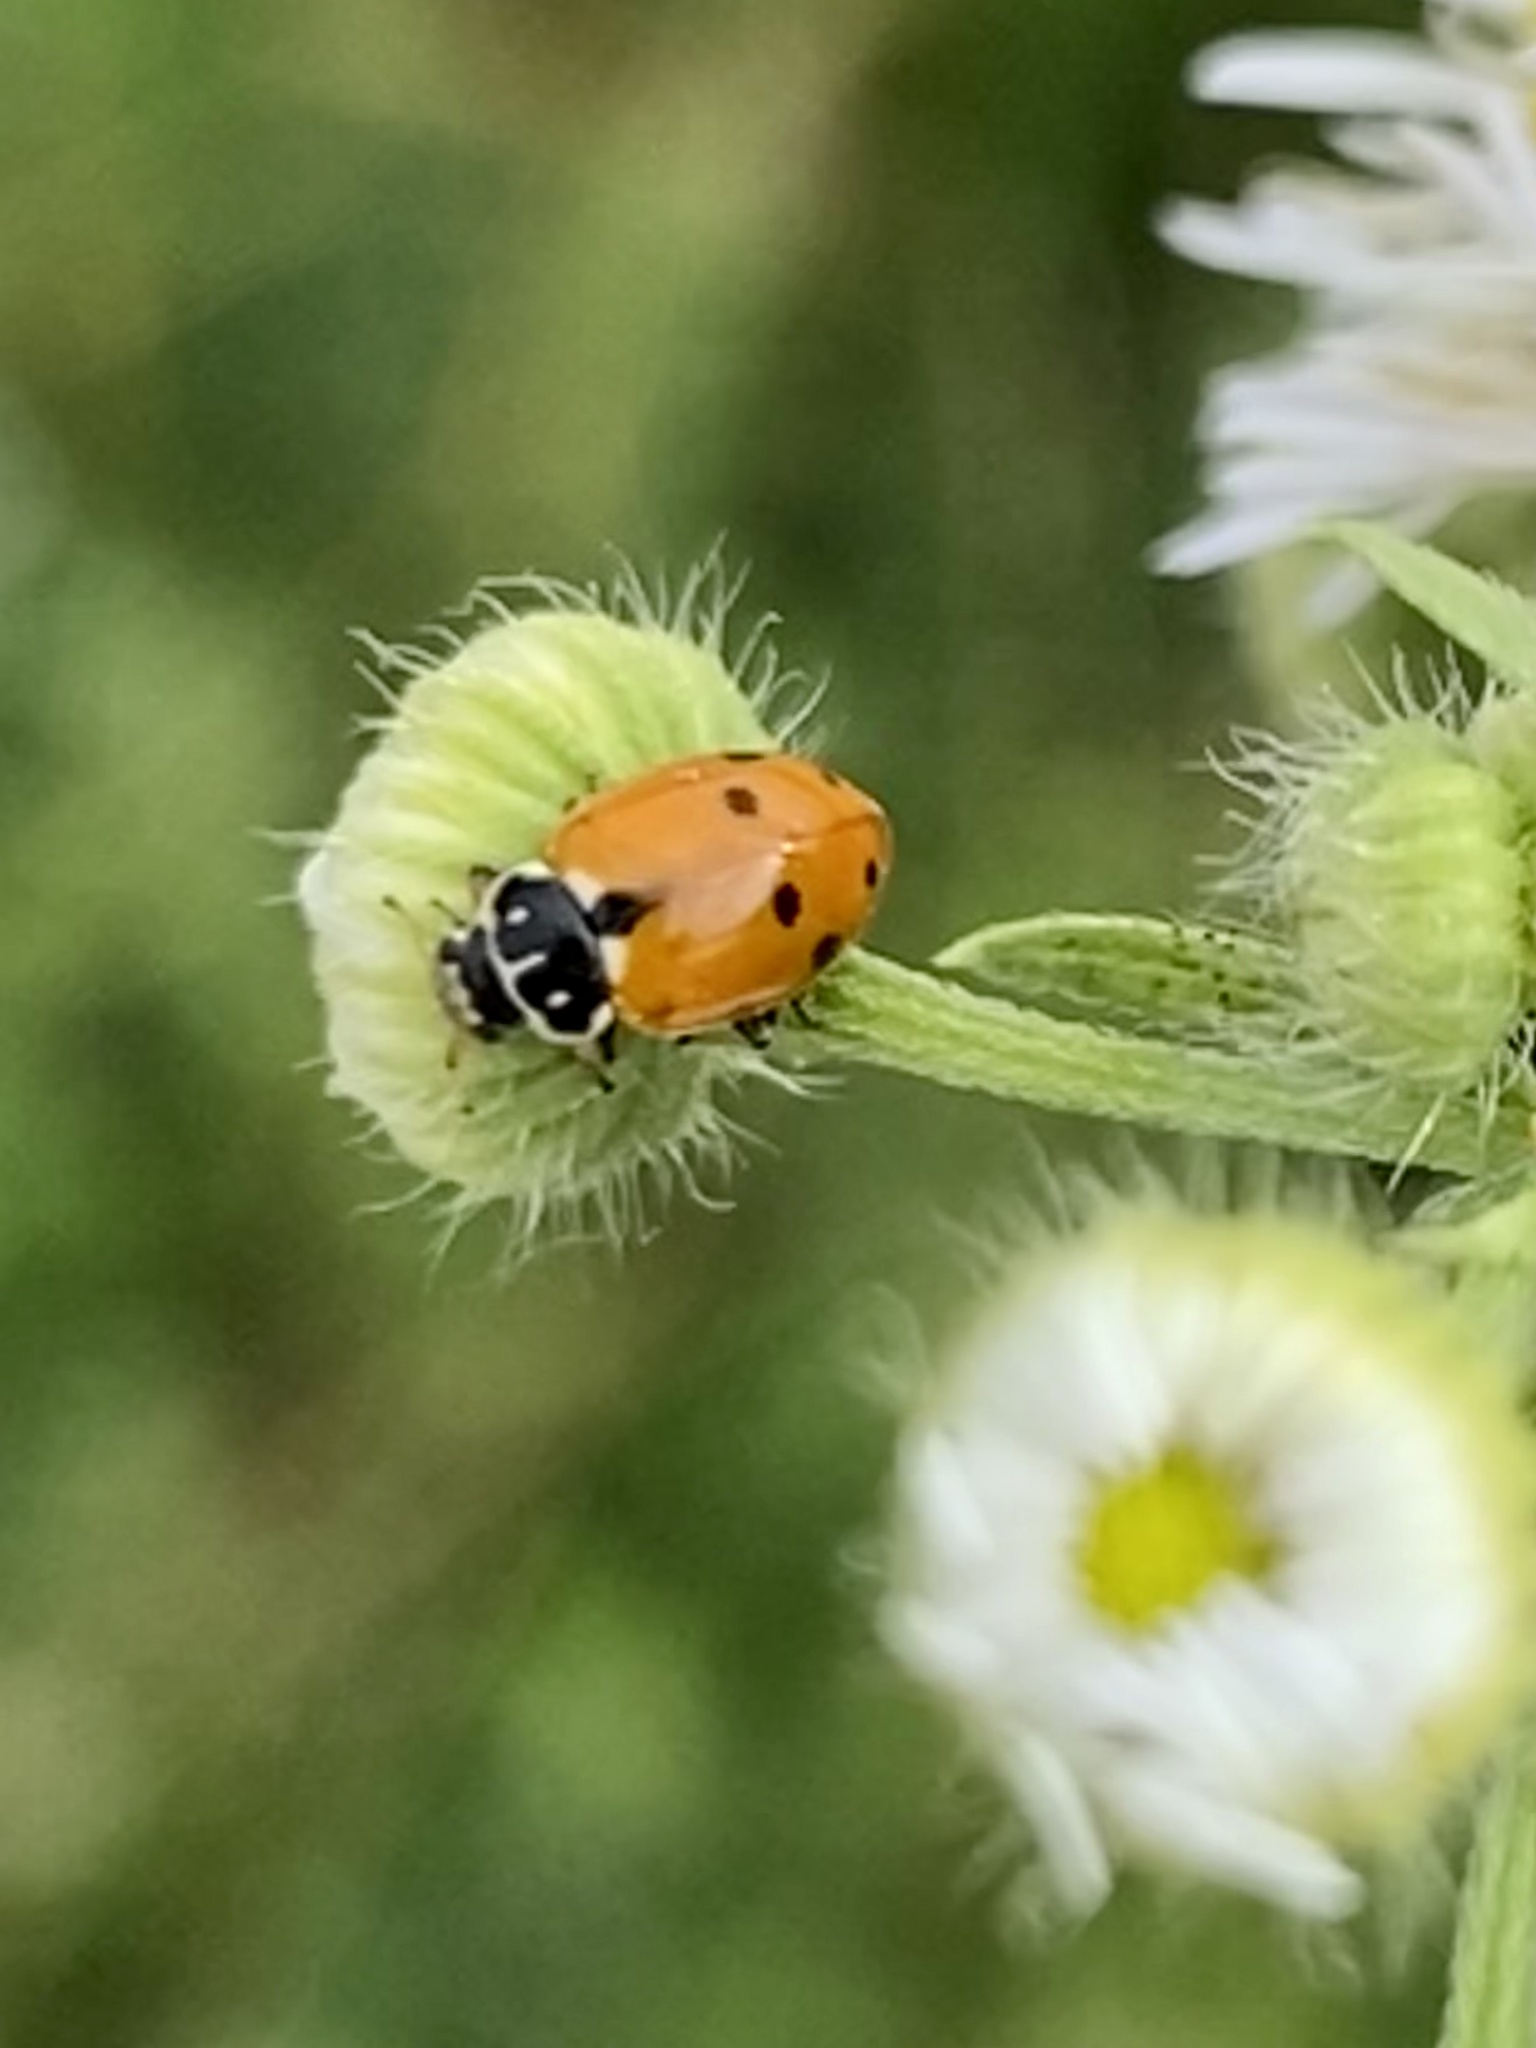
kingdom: Animalia
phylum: Arthropoda
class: Insecta
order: Coleoptera
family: Coccinellidae
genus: Hippodamia
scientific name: Hippodamia variegata
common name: Ladybird beetle
